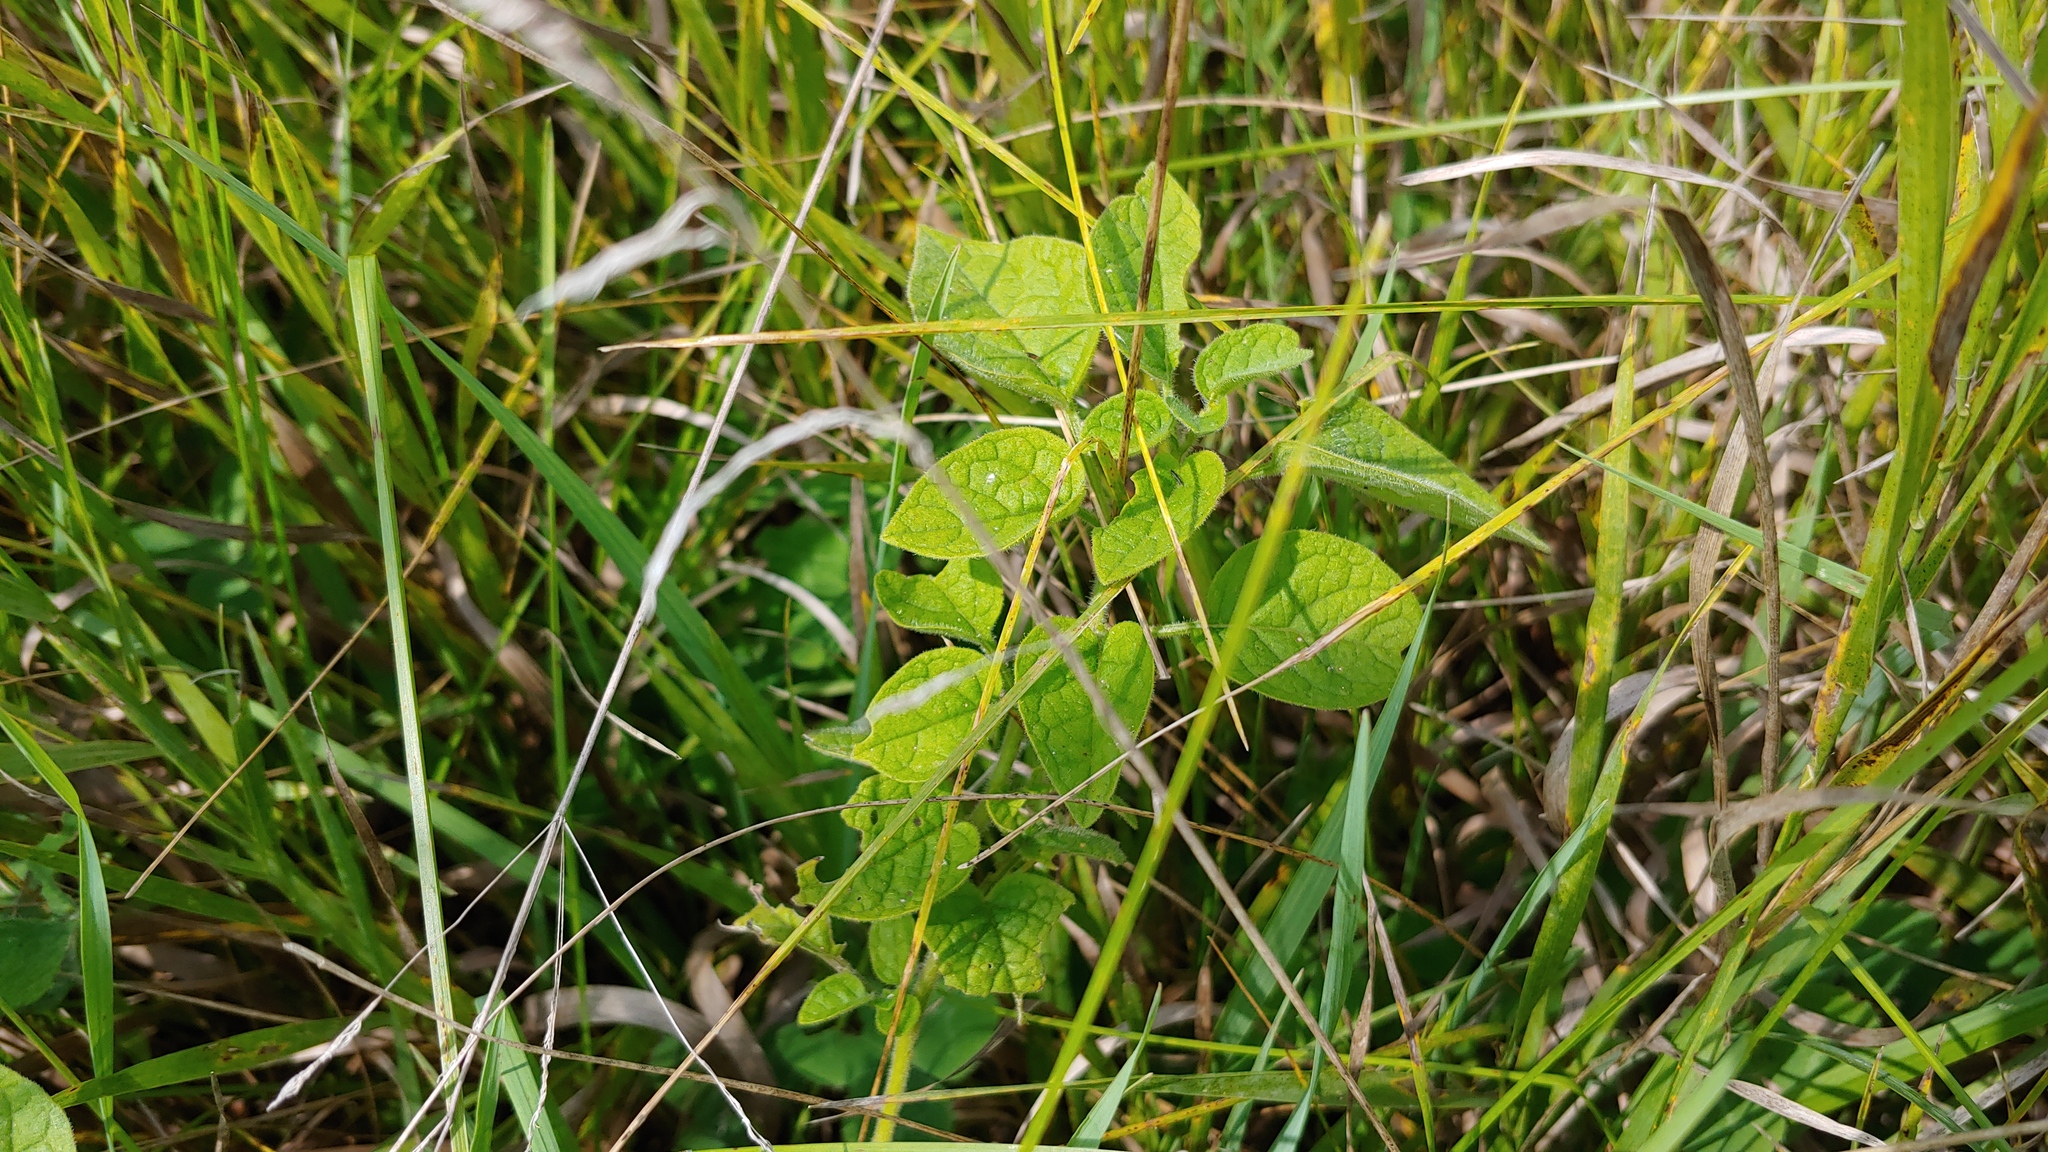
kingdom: Plantae
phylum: Tracheophyta
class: Magnoliopsida
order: Solanales
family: Solanaceae
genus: Physalis
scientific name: Physalis heterophylla
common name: Clammy ground-cherry
